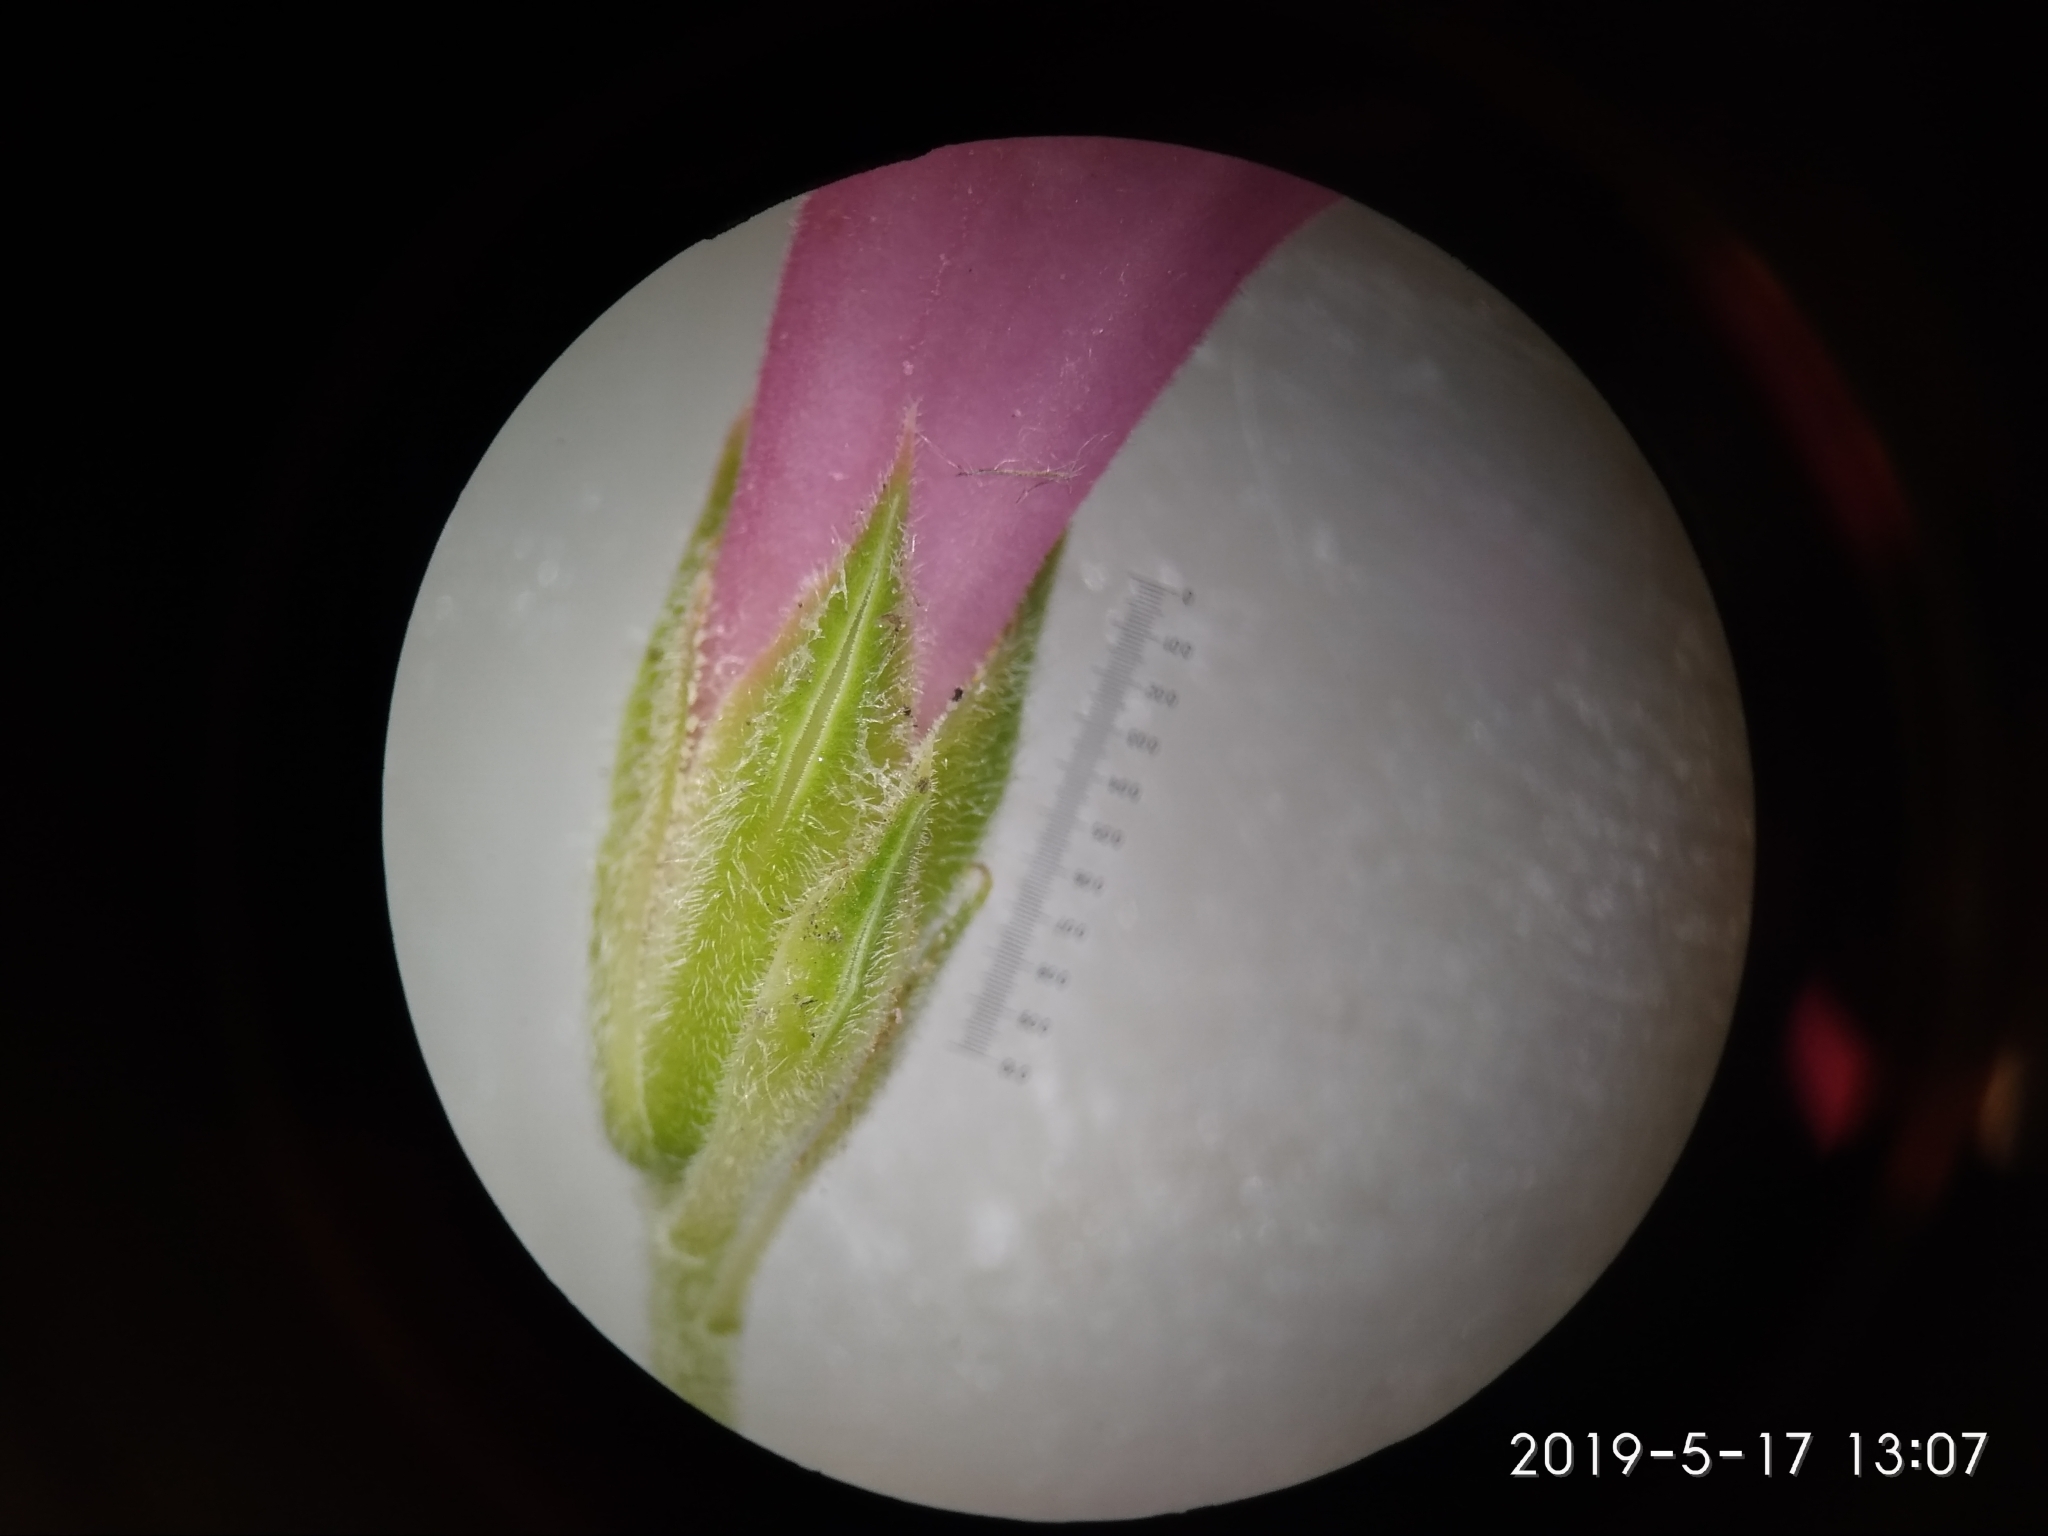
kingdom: Plantae
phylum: Tracheophyta
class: Magnoliopsida
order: Ericales
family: Ericaceae
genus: Erica
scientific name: Erica abietina
